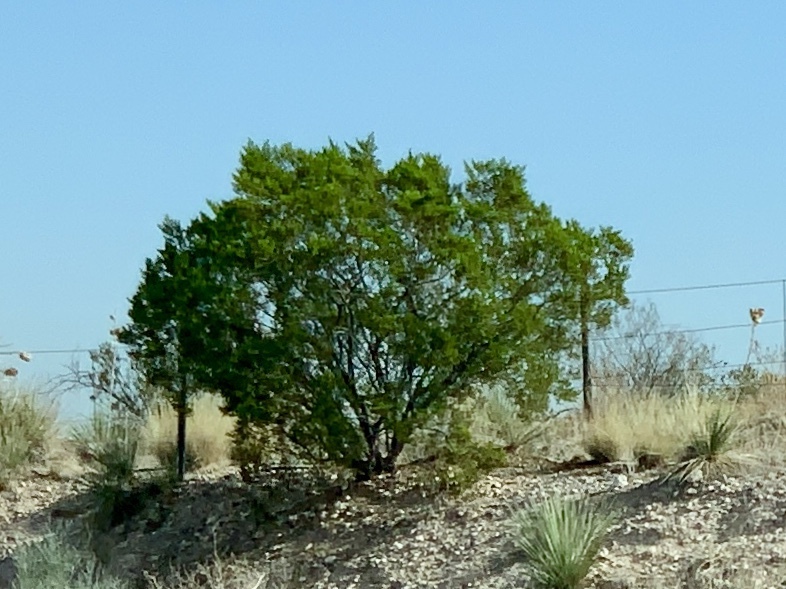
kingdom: Plantae
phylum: Tracheophyta
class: Magnoliopsida
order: Zygophyllales
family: Zygophyllaceae
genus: Larrea
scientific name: Larrea tridentata
